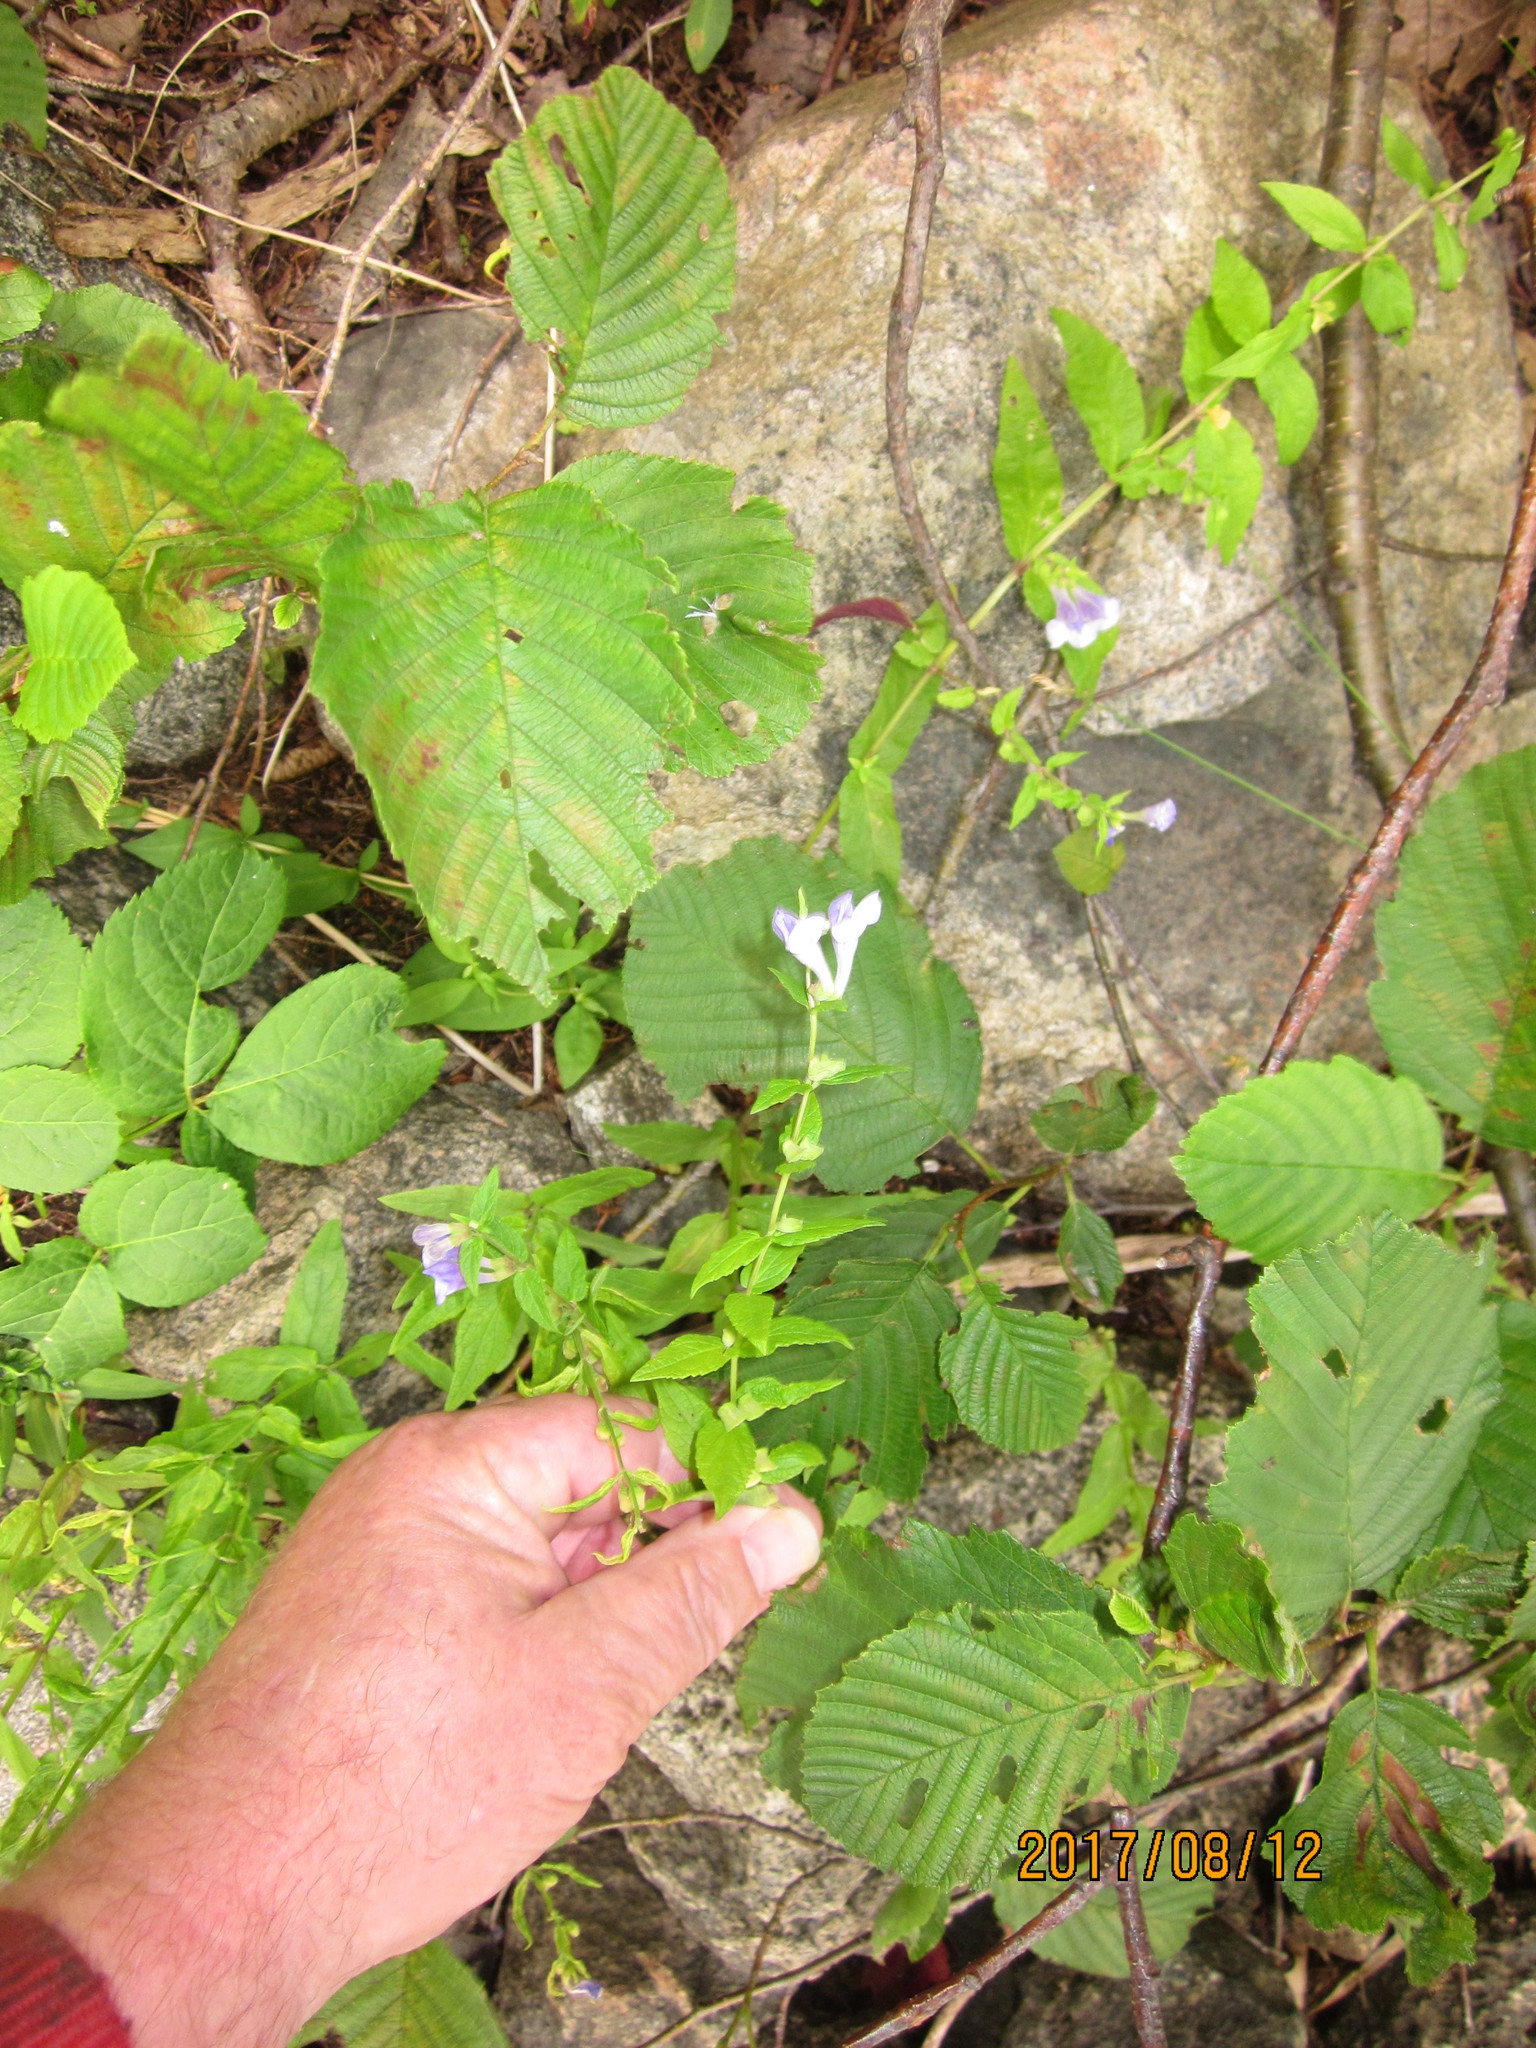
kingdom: Plantae
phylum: Tracheophyta
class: Magnoliopsida
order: Lamiales
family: Lamiaceae
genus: Scutellaria
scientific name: Scutellaria galericulata
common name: Skullcap
